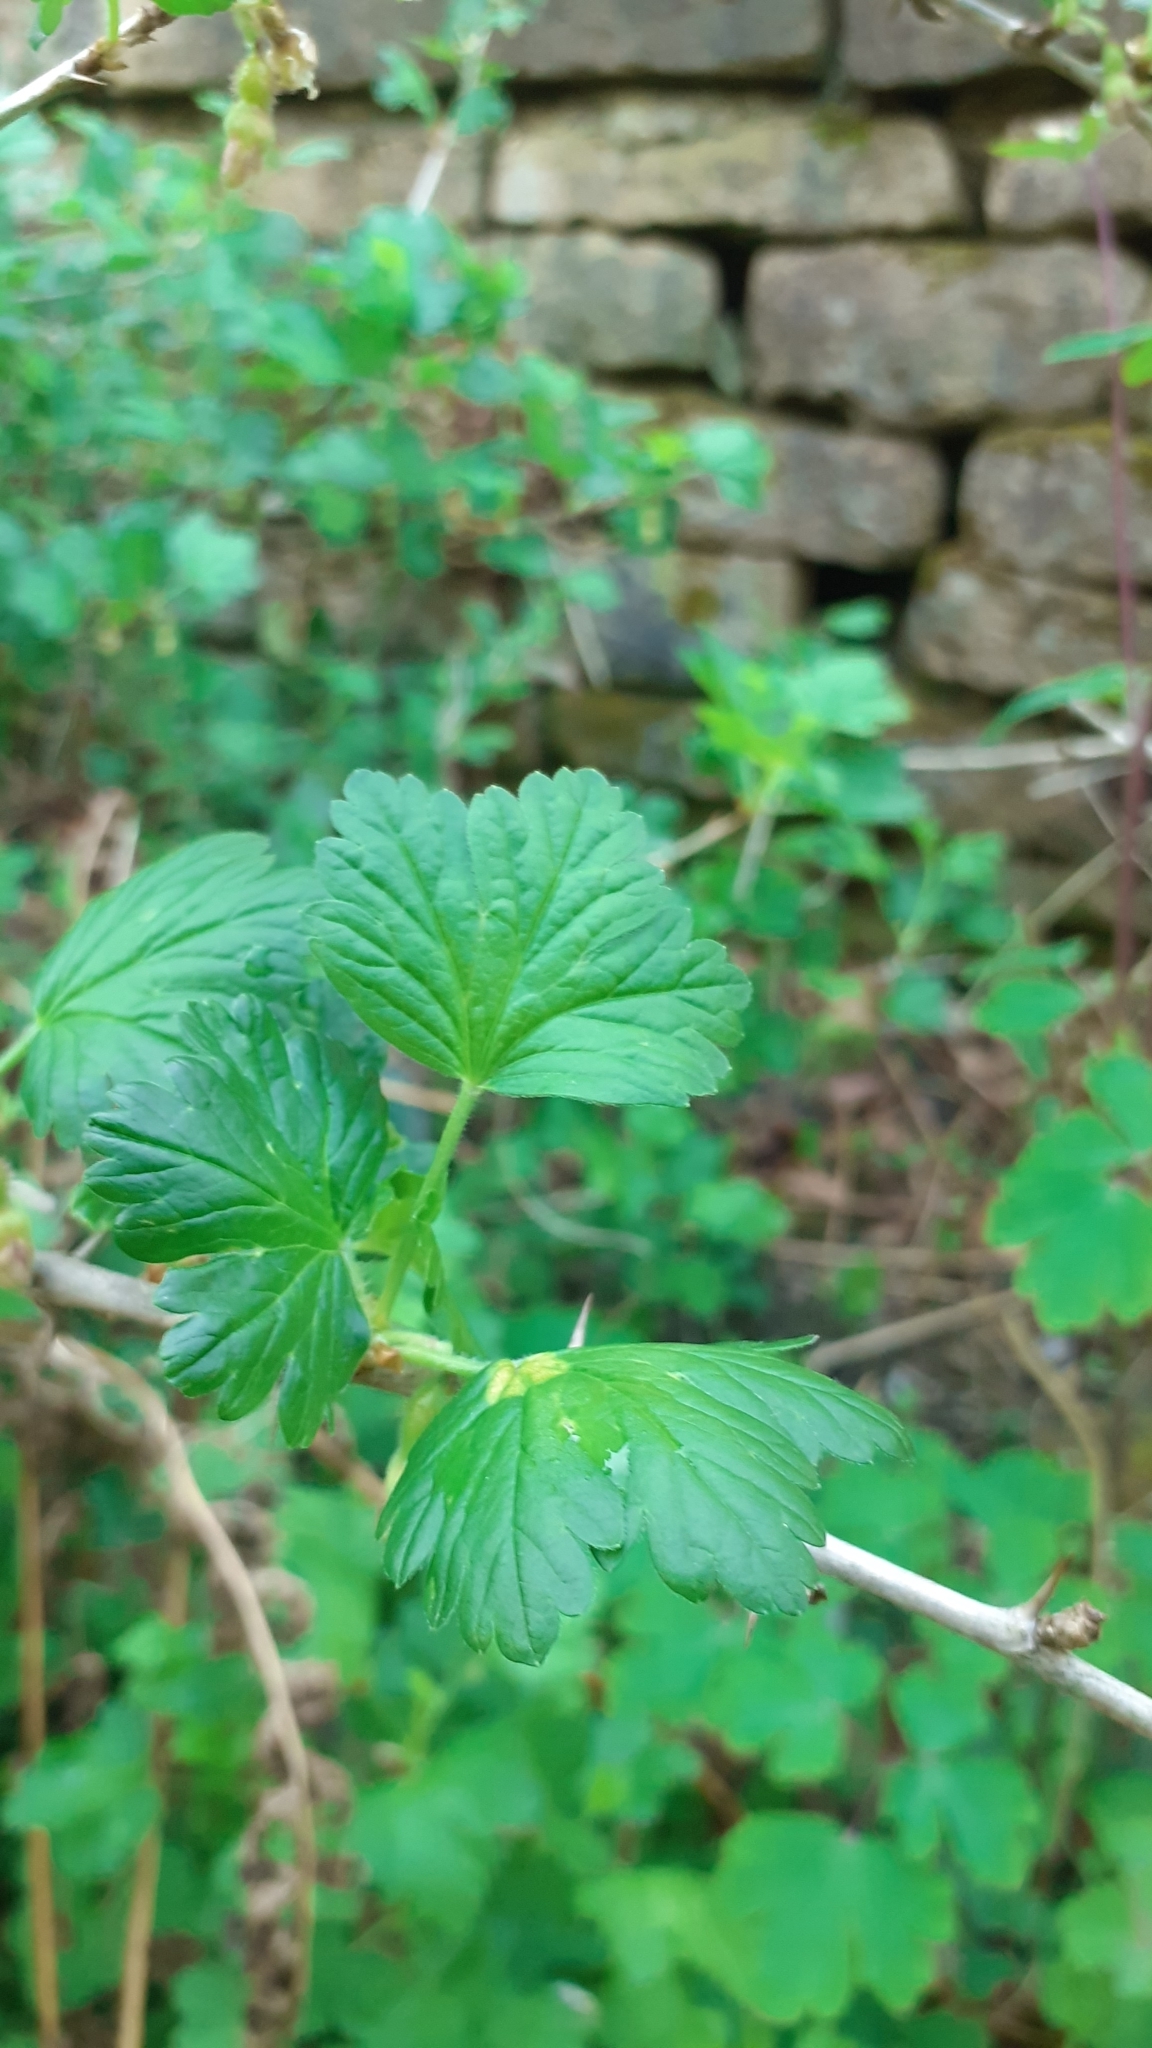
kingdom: Plantae
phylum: Tracheophyta
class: Magnoliopsida
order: Saxifragales
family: Grossulariaceae
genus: Ribes
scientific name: Ribes uva-crispa
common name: Gooseberry
